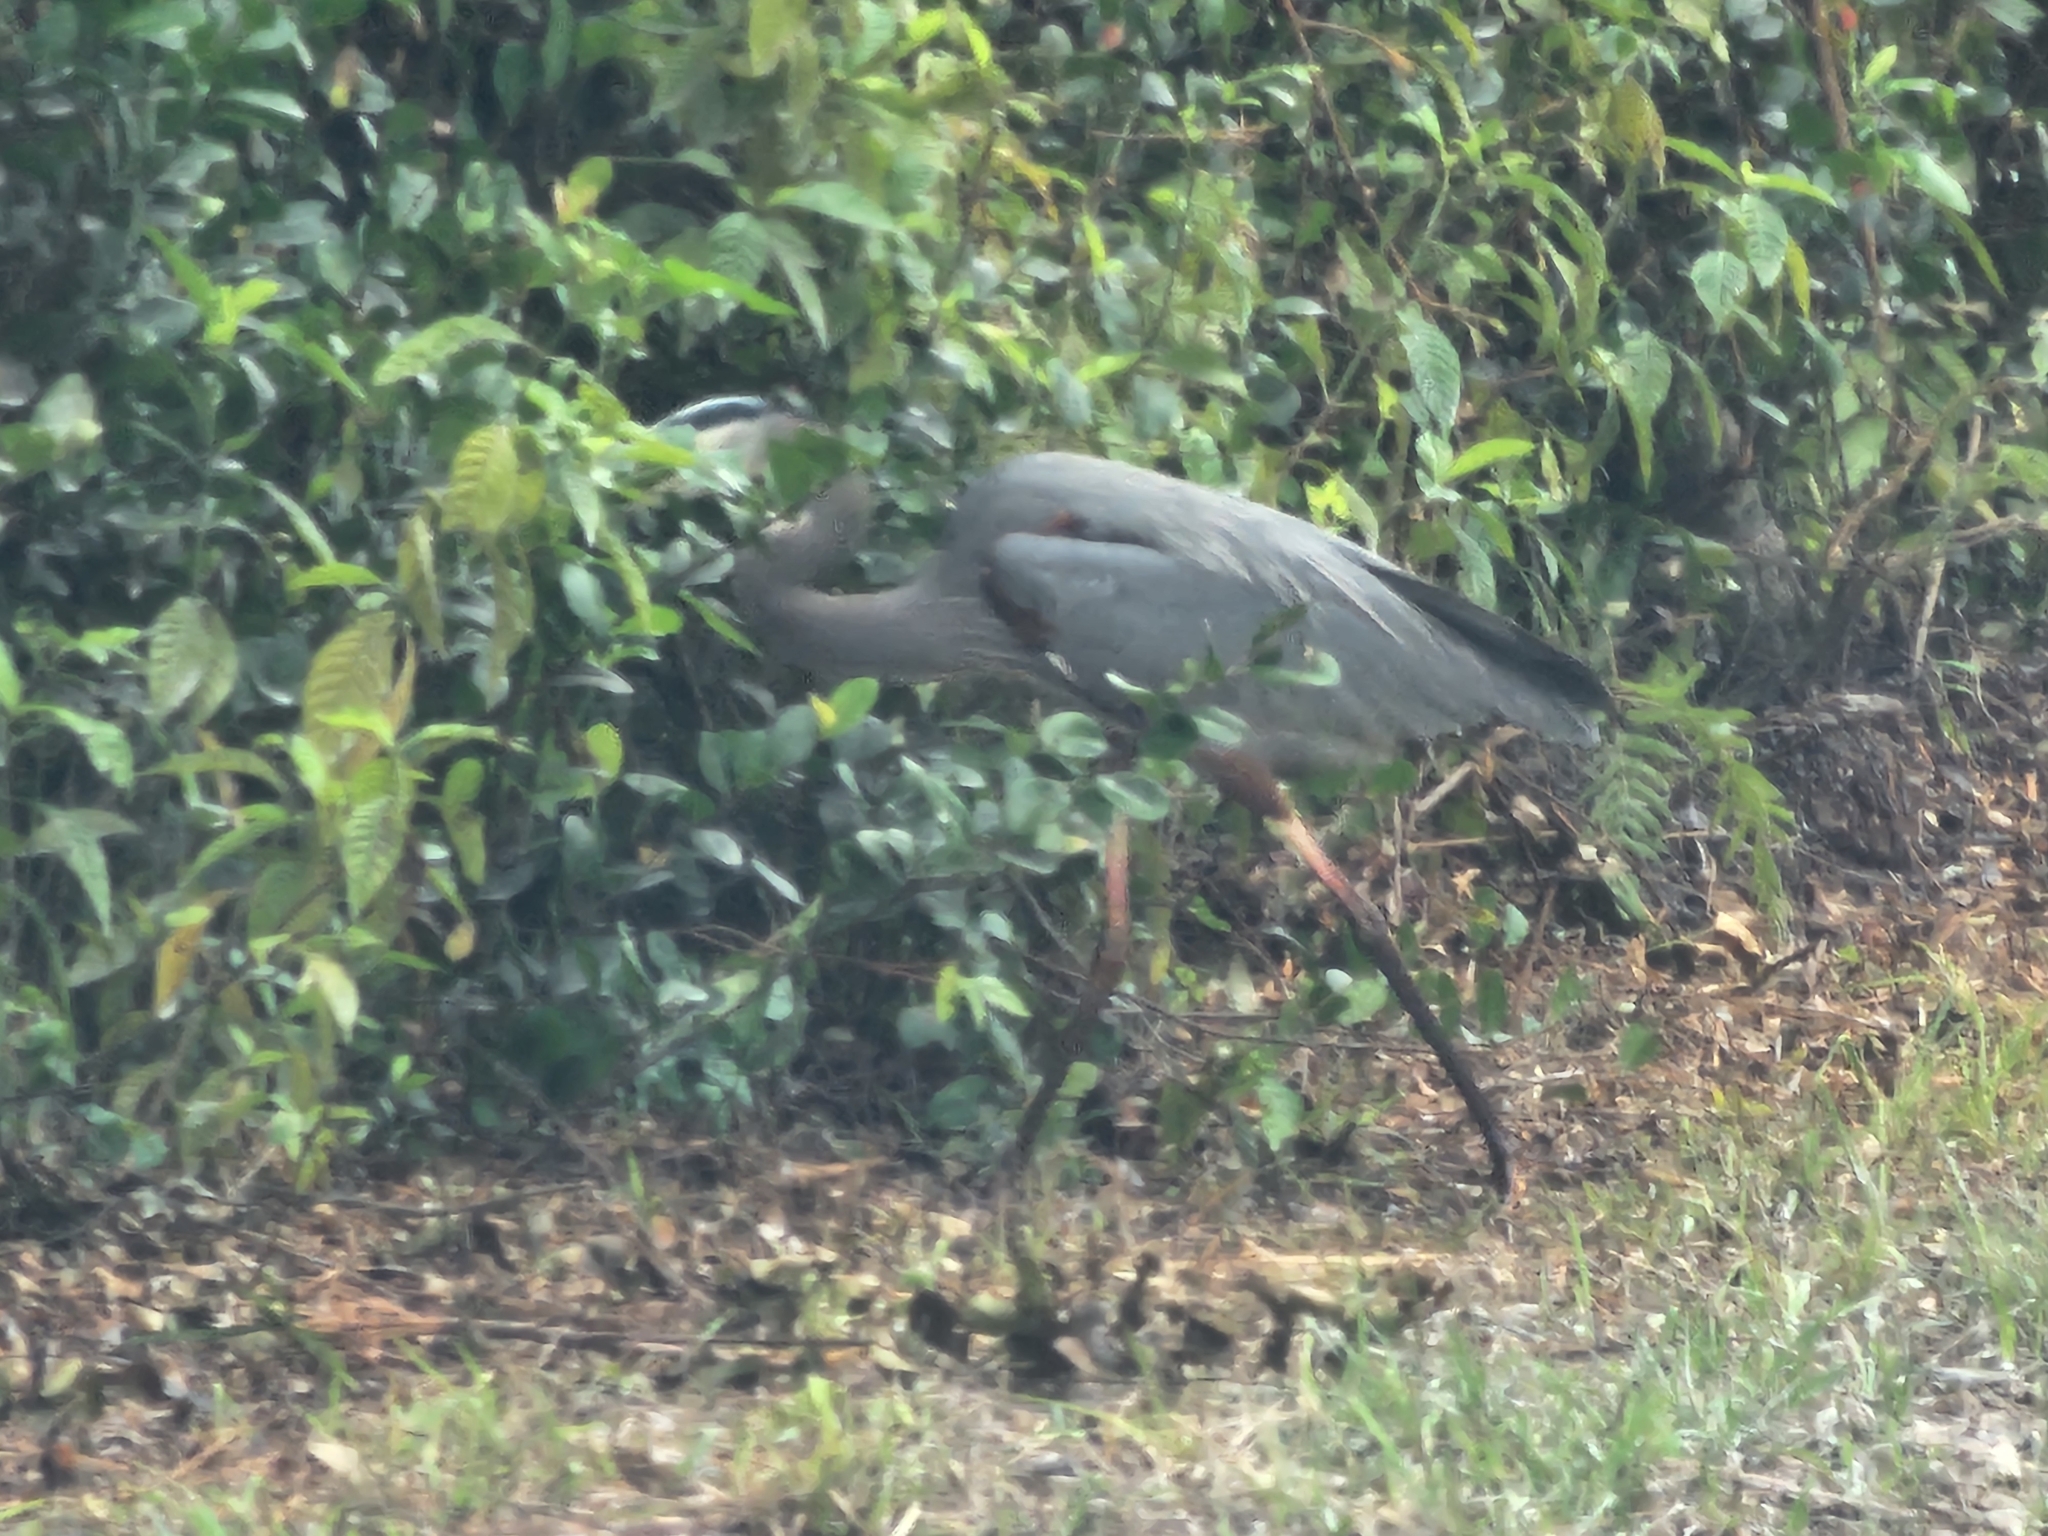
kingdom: Animalia
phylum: Chordata
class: Aves
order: Pelecaniformes
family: Ardeidae
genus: Ardea
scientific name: Ardea herodias
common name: Great blue heron
